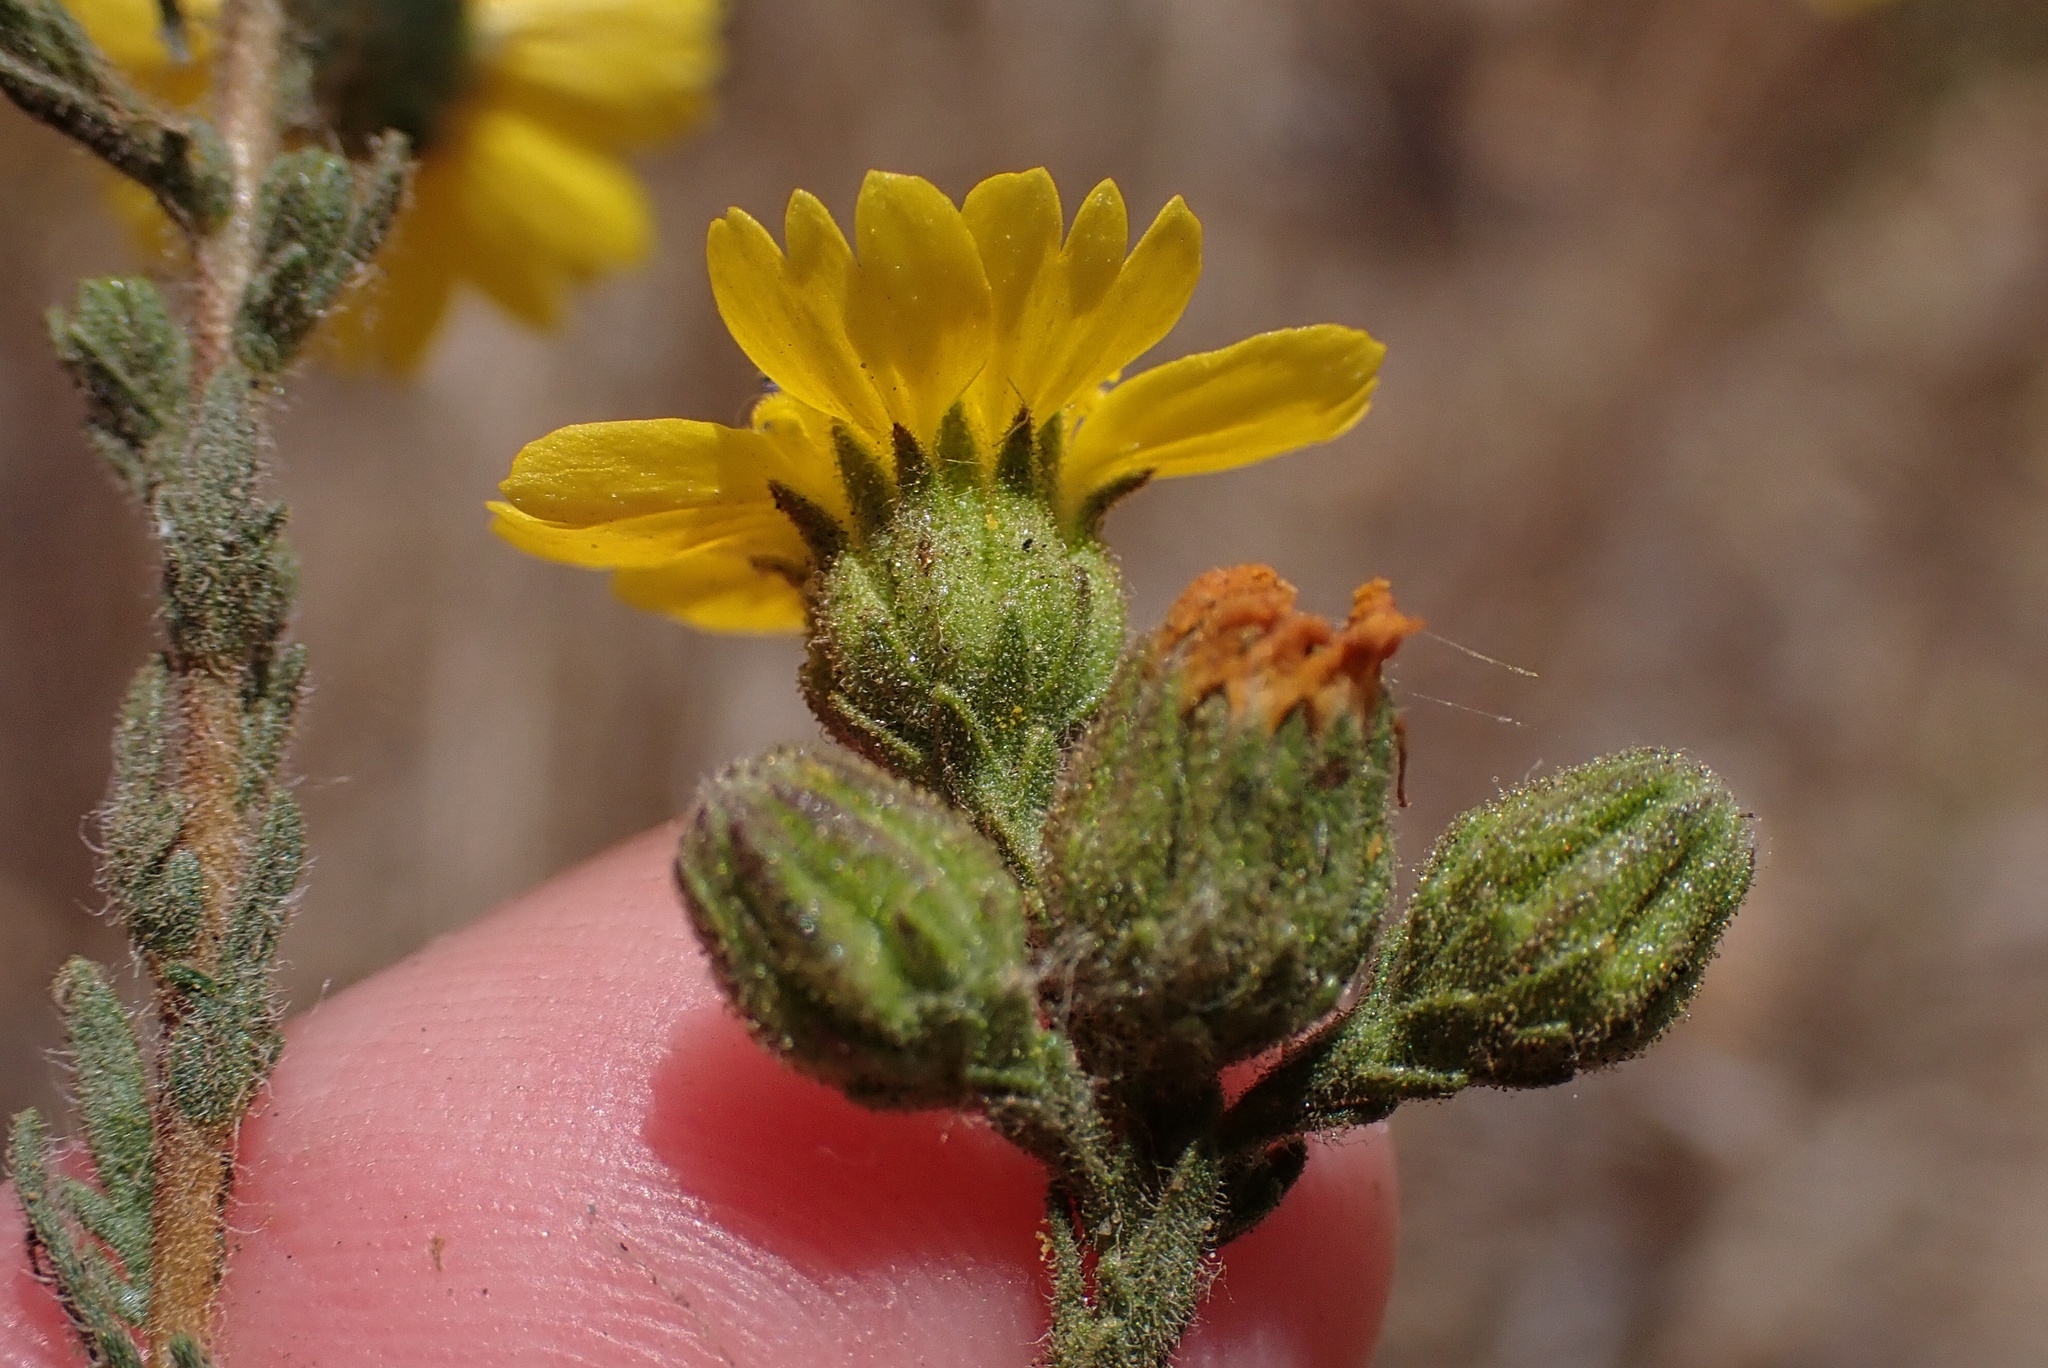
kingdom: Plantae
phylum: Tracheophyta
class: Magnoliopsida
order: Asterales
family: Asteraceae
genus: Deinandra
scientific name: Deinandra paniculata
